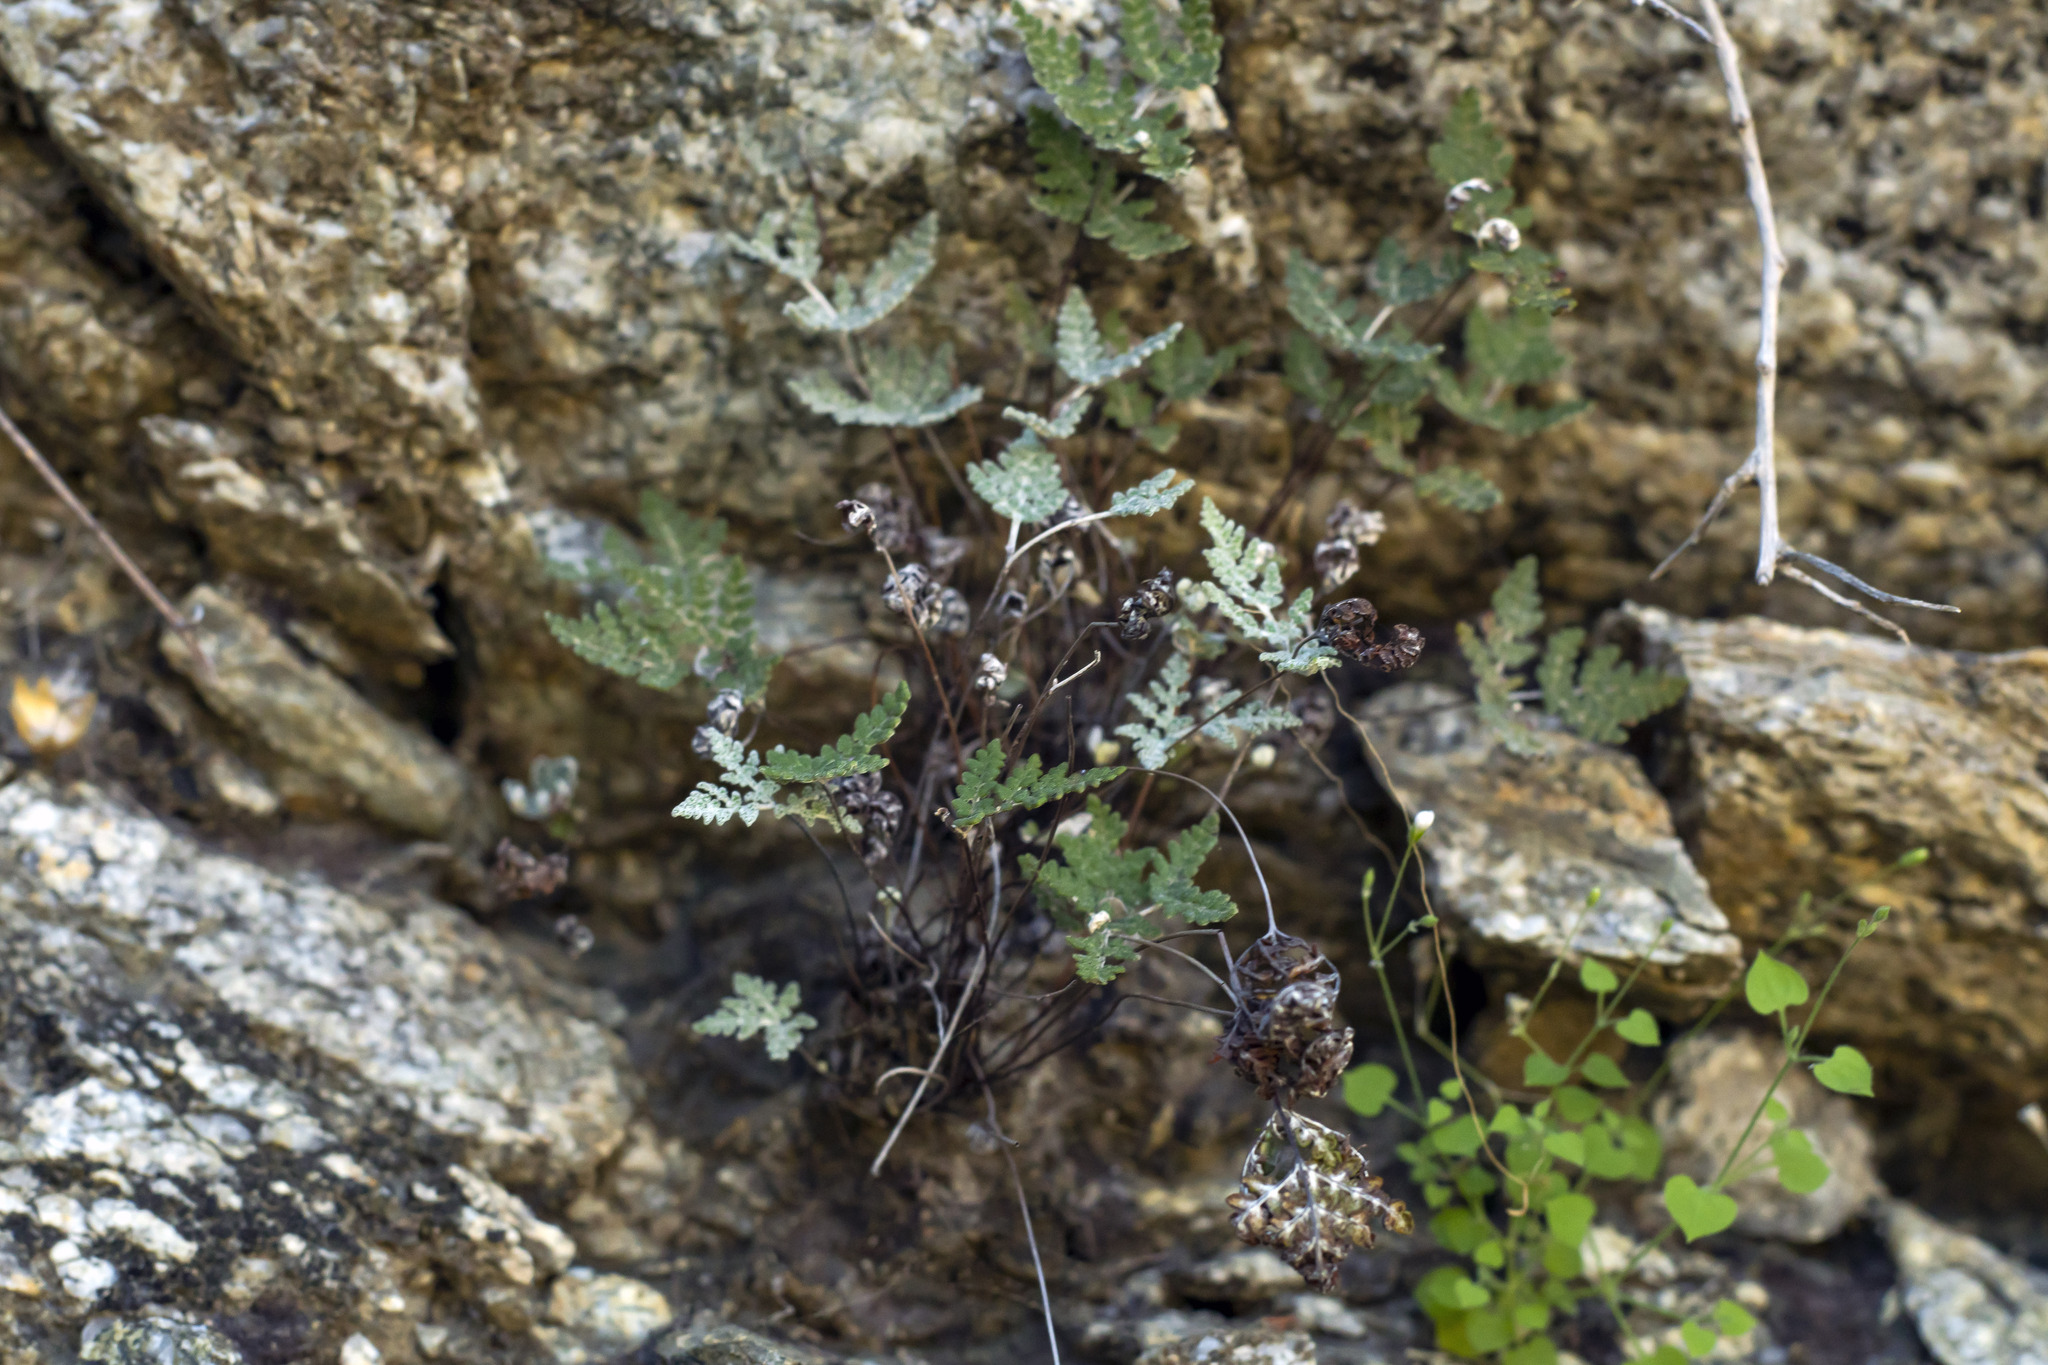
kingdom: Plantae
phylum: Tracheophyta
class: Polypodiopsida
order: Polypodiales
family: Pteridaceae
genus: Notholaena
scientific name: Notholaena californica
